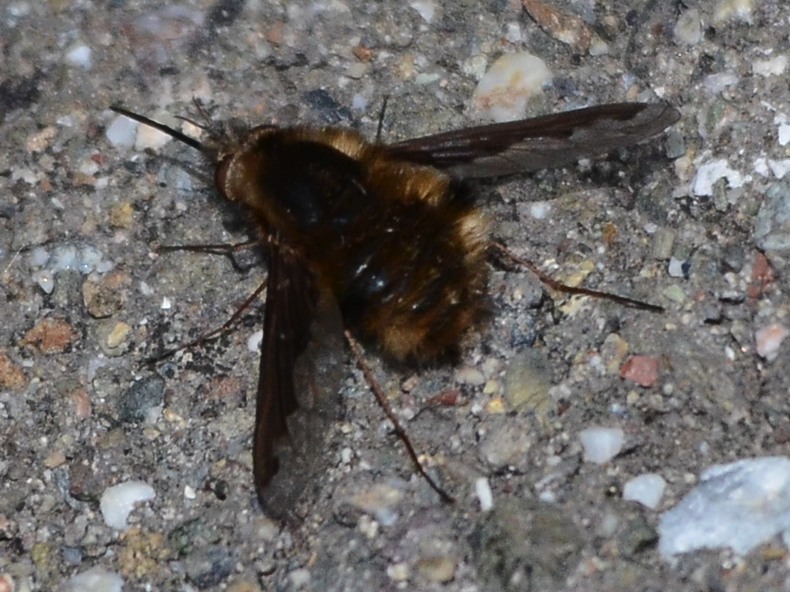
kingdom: Animalia
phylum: Arthropoda
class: Insecta
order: Diptera
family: Bombyliidae
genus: Bombylius
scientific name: Bombylius major
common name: Bee fly
